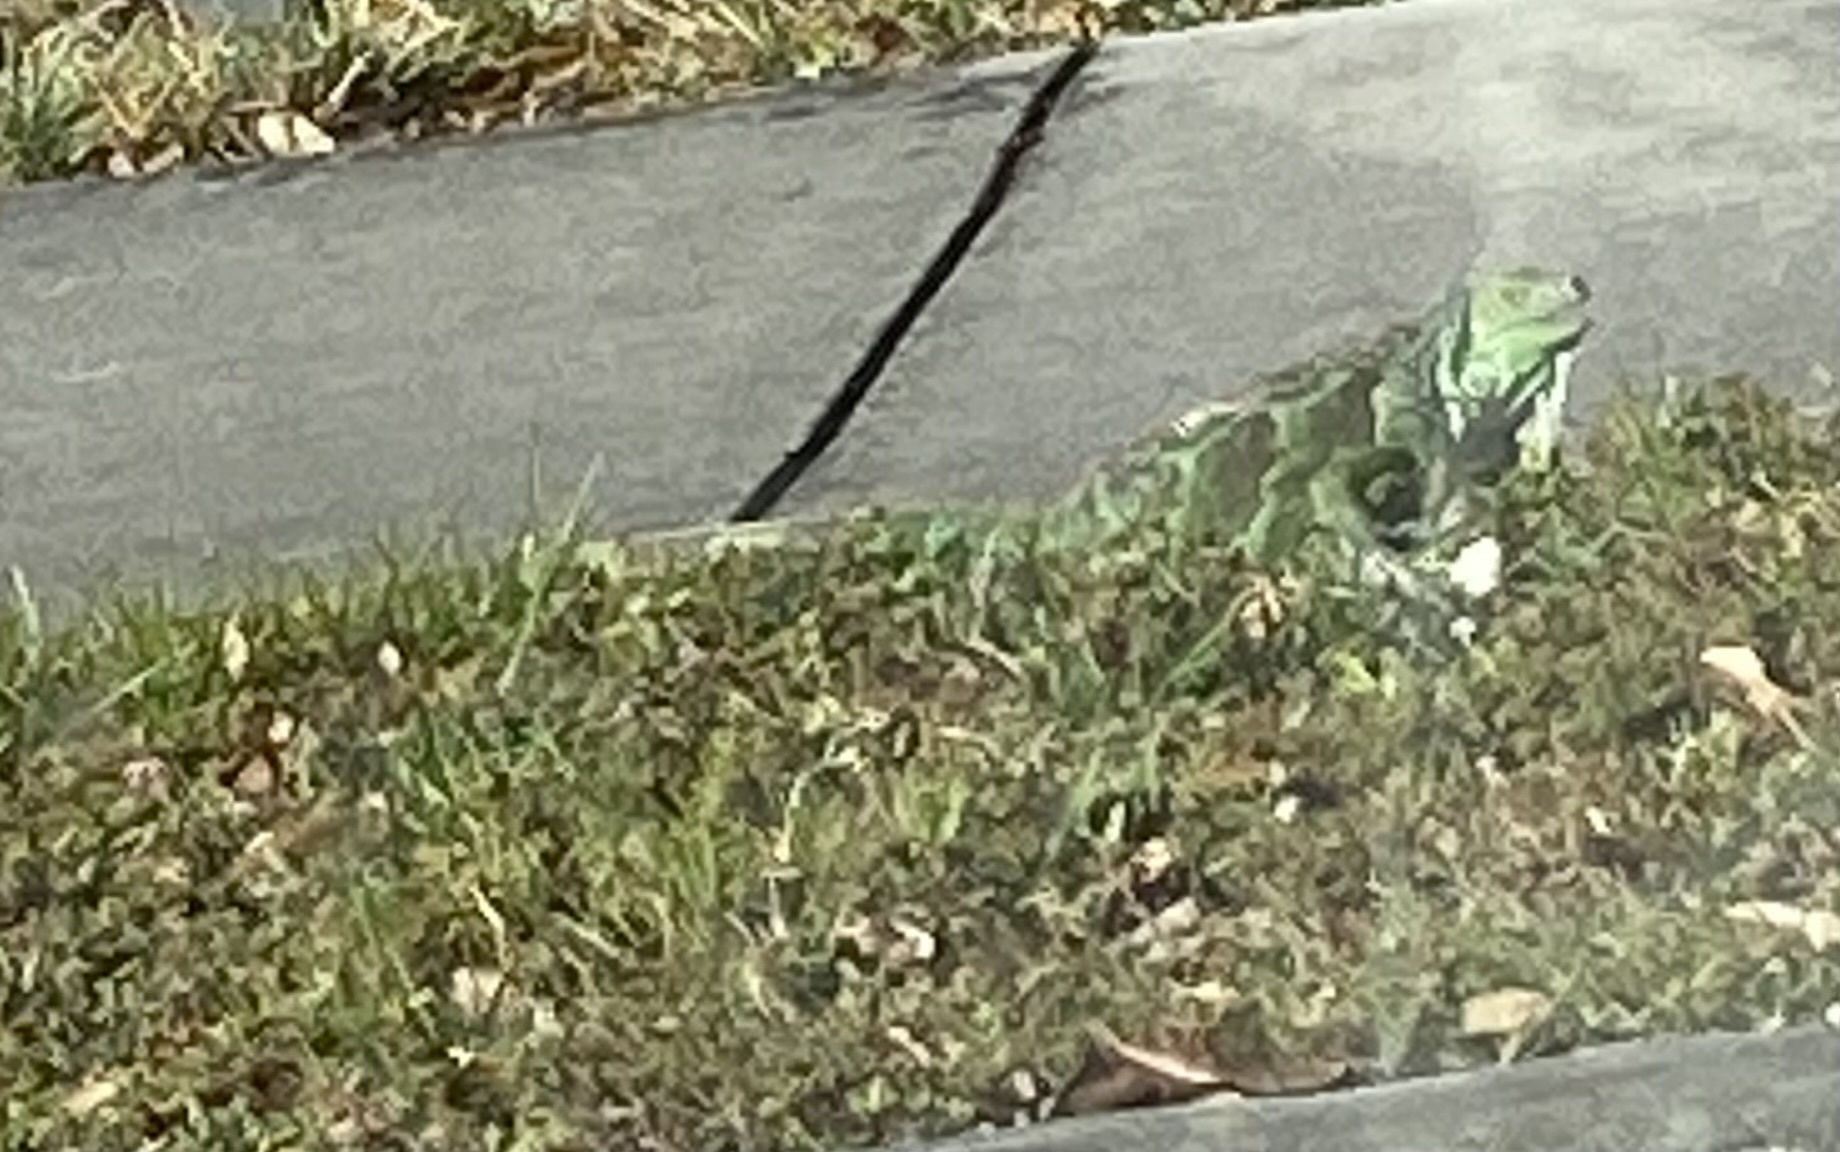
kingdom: Animalia
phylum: Chordata
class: Squamata
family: Iguanidae
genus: Iguana
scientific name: Iguana iguana
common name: Green iguana
